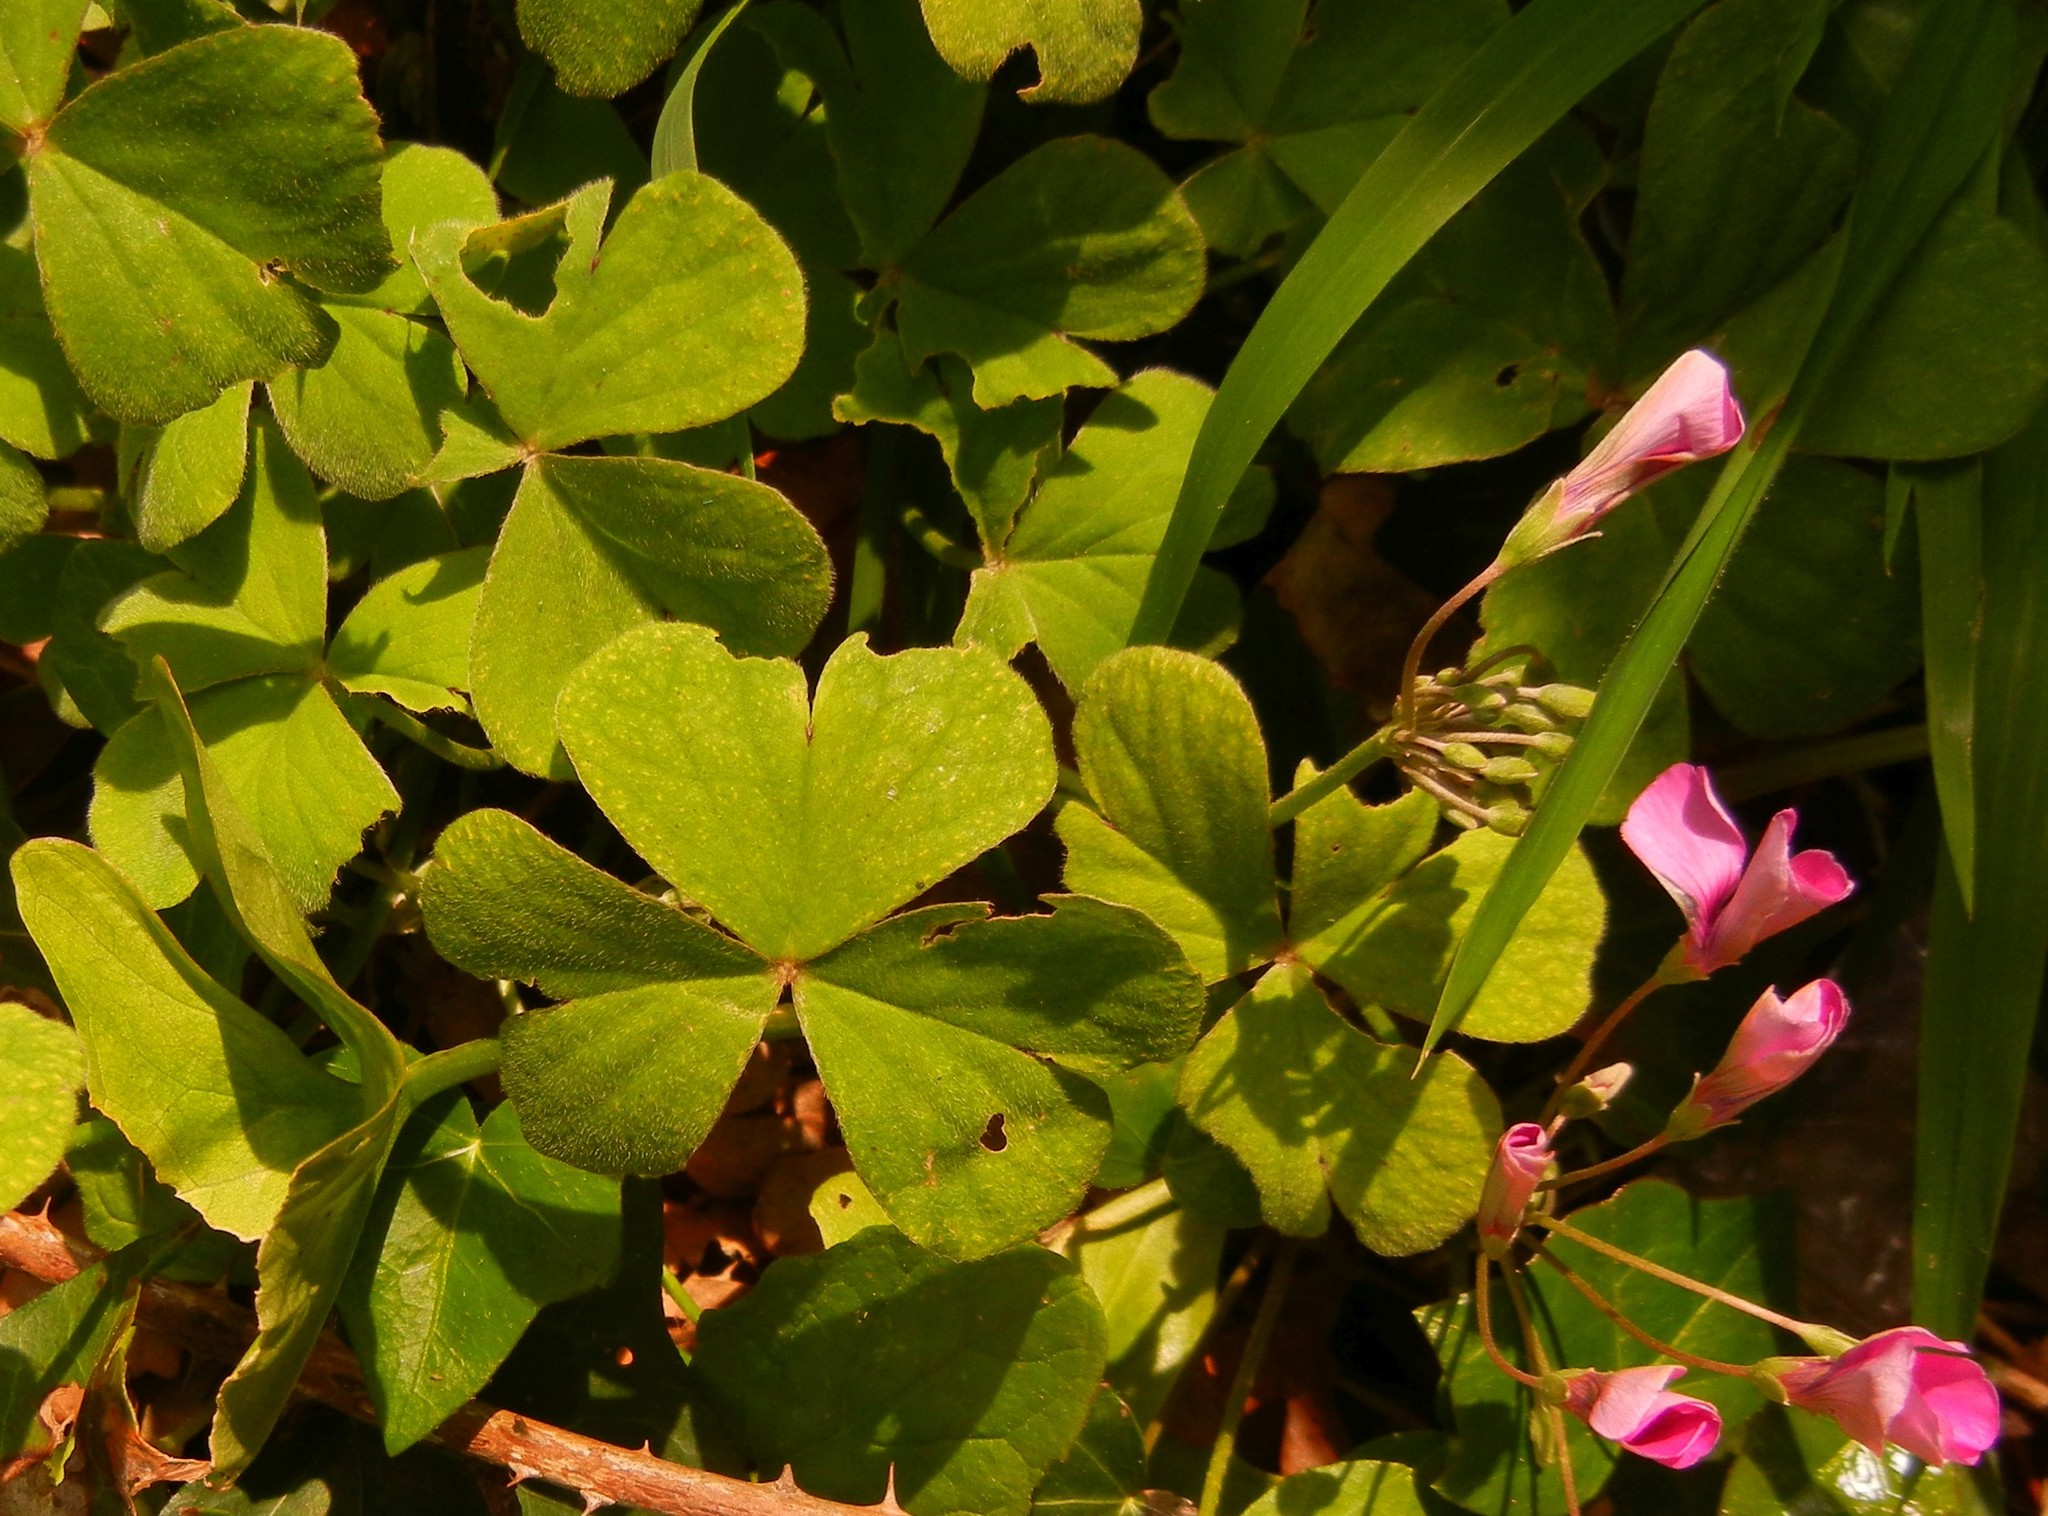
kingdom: Plantae
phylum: Tracheophyta
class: Magnoliopsida
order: Oxalidales
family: Oxalidaceae
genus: Oxalis
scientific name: Oxalis articulata
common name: Pink-sorrel
